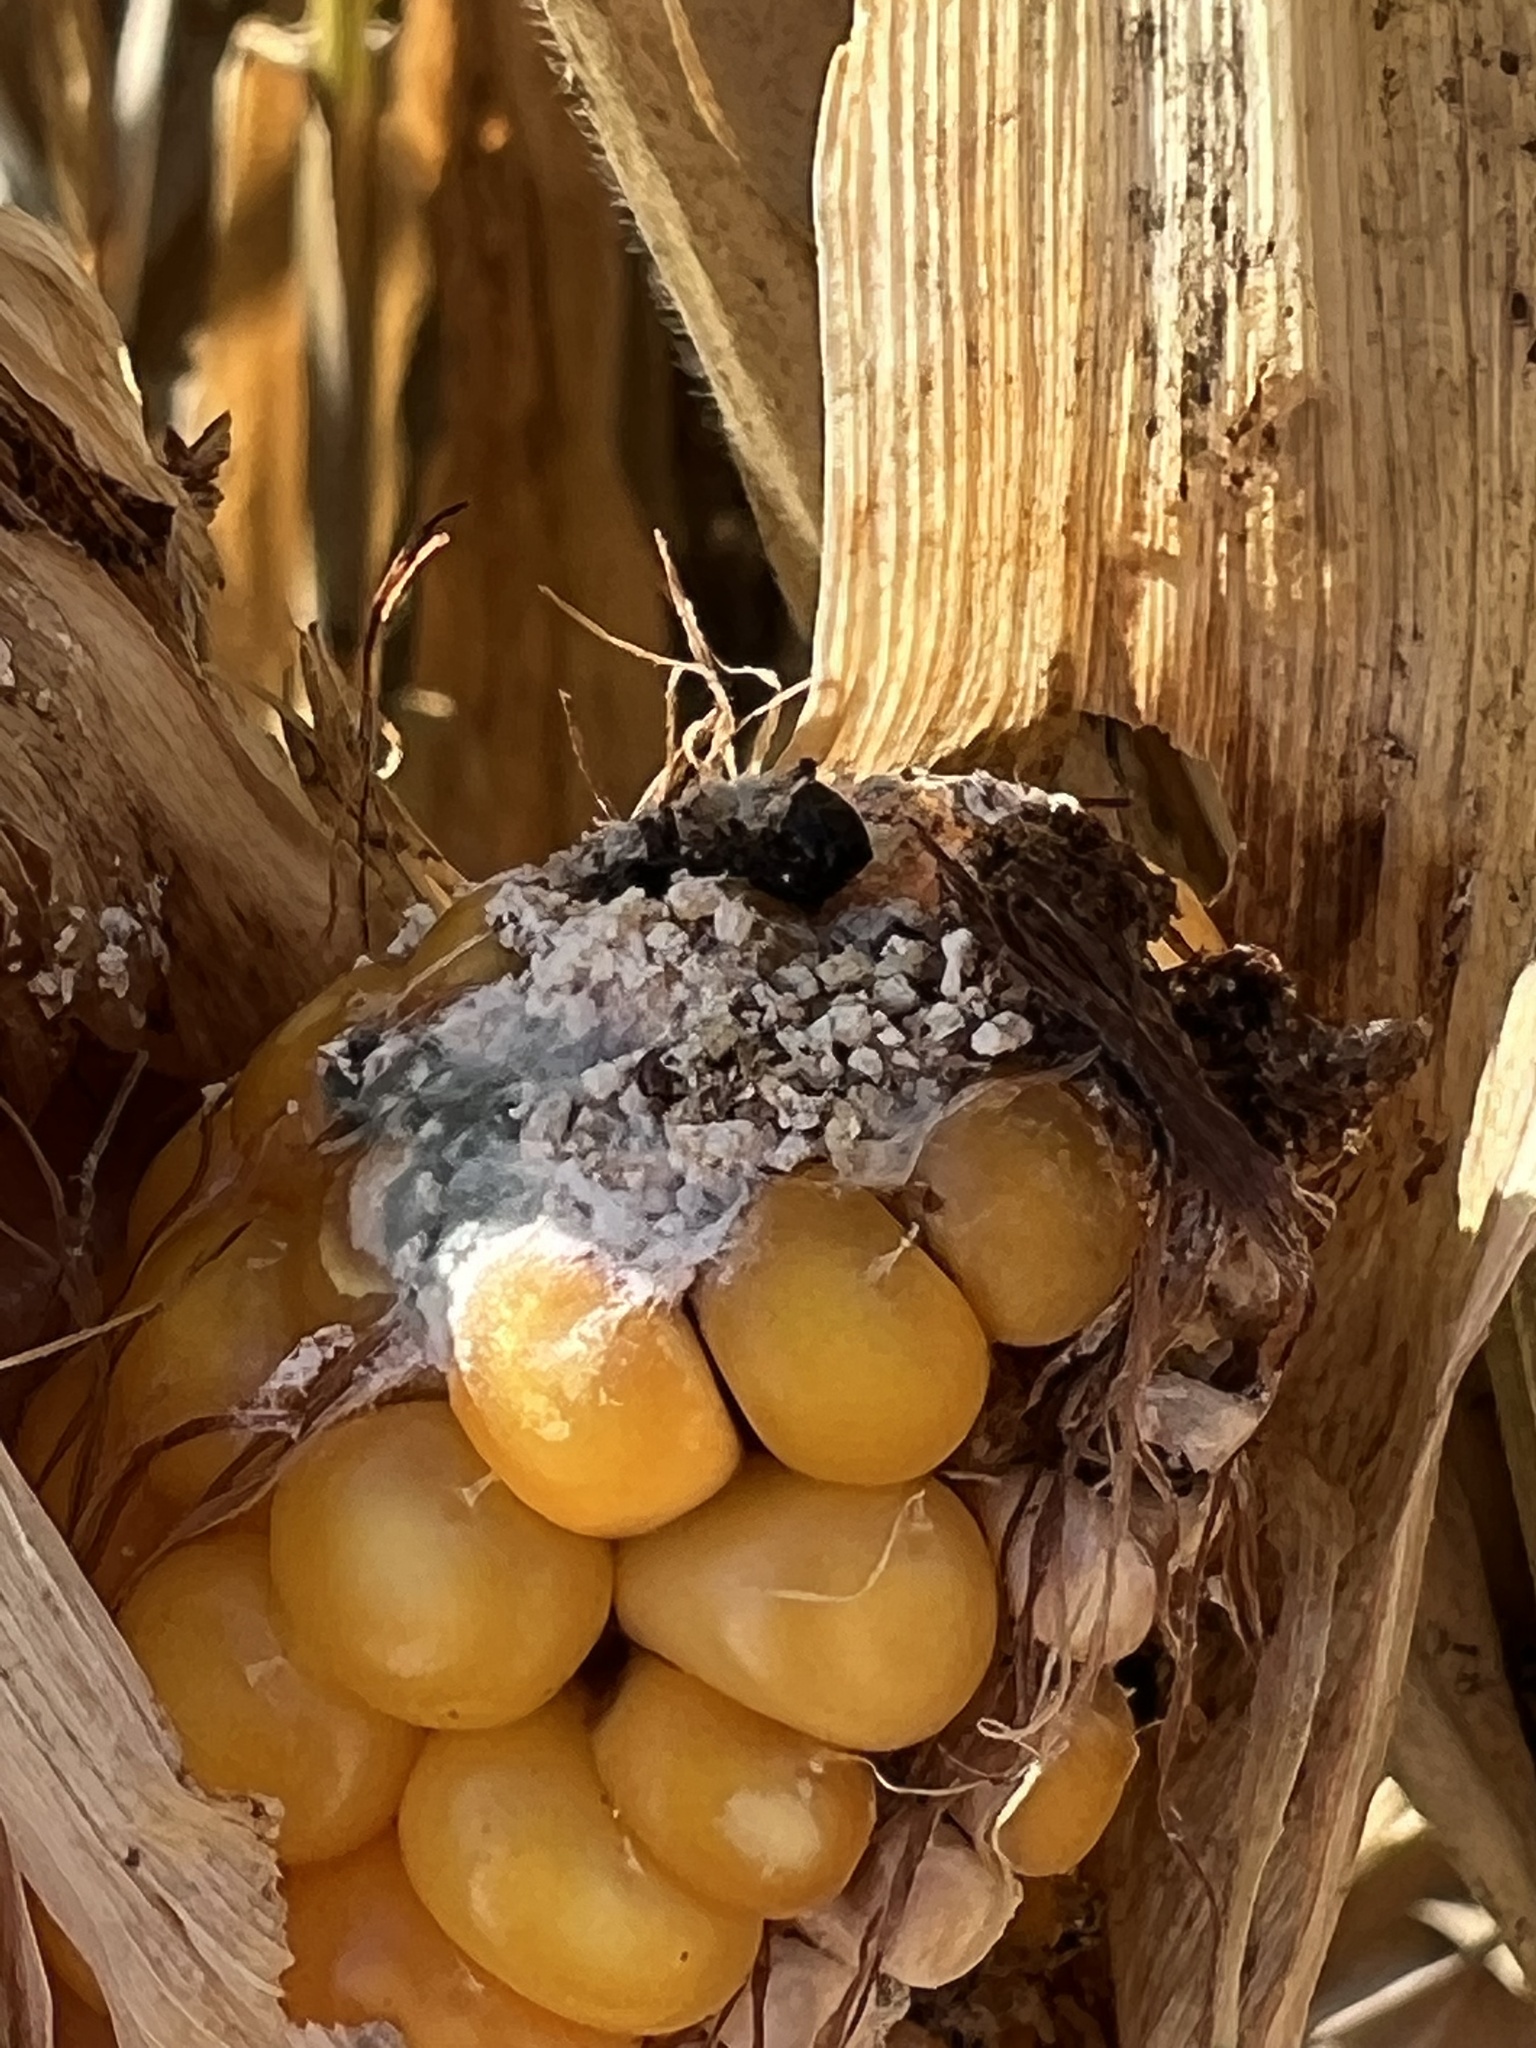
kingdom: Fungi
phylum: Ascomycota
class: Sordariomycetes
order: Hypocreales
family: Hypocreaceae
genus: Trichoderma
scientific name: Trichoderma viride
